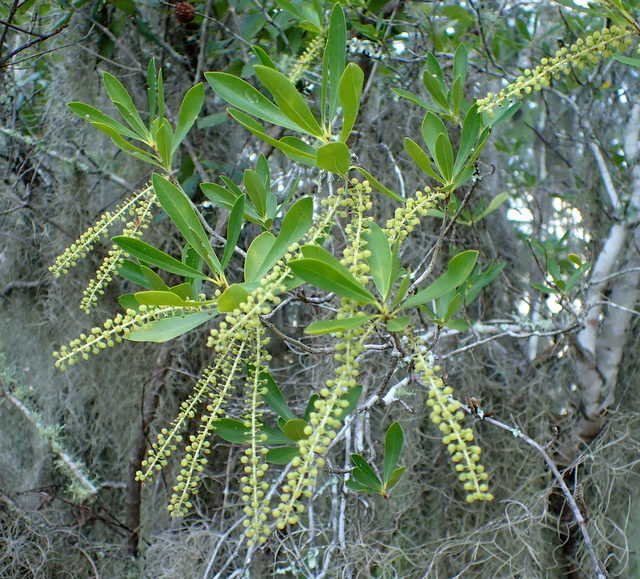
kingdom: Plantae
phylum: Tracheophyta
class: Magnoliopsida
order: Ericales
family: Cyrillaceae
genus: Cyrilla
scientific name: Cyrilla racemiflora
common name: Black titi
